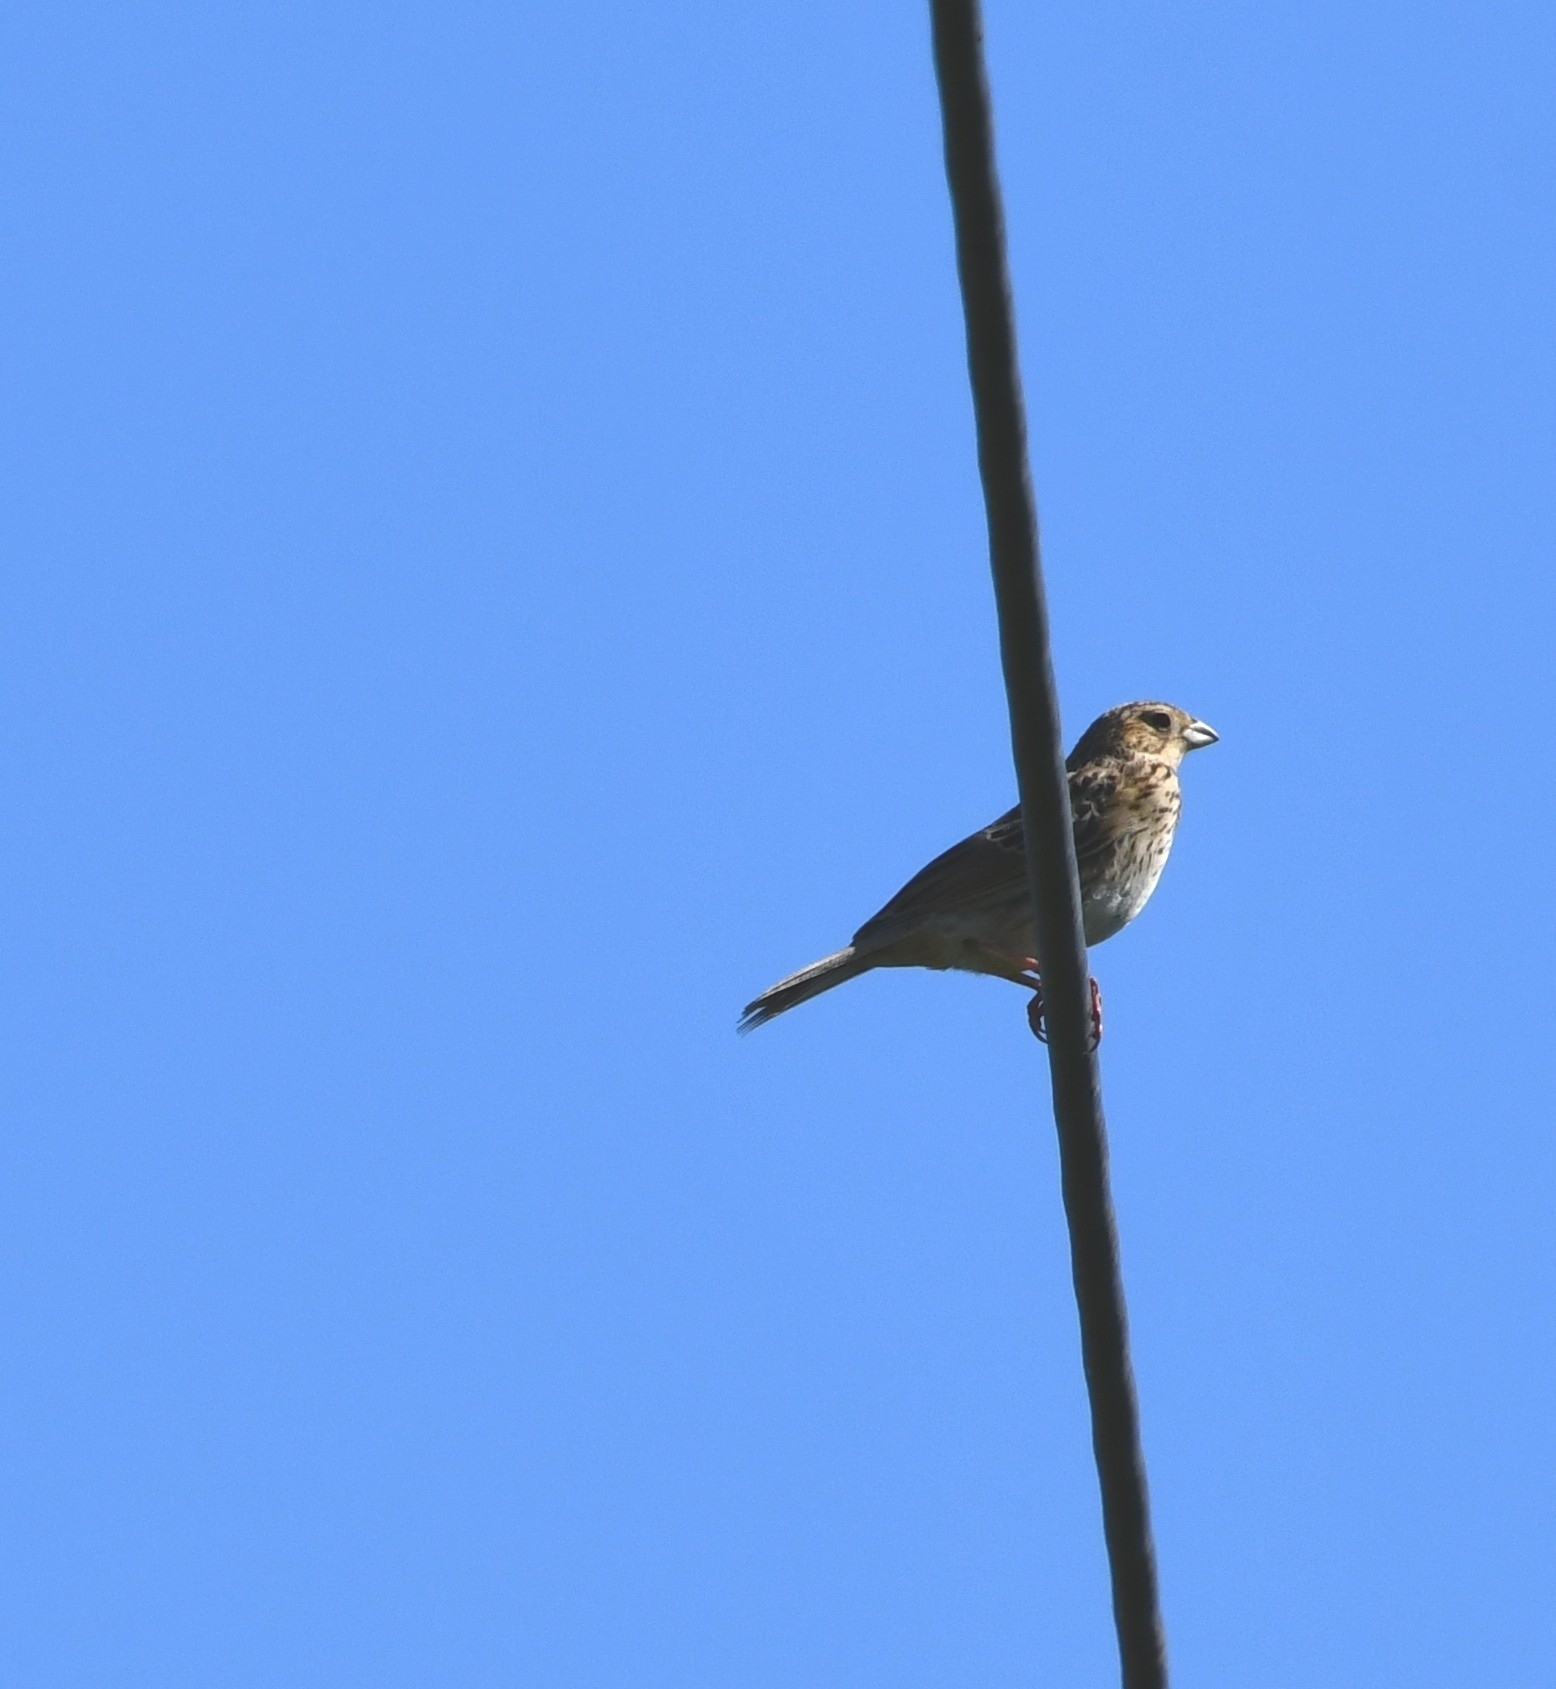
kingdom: Animalia
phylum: Chordata
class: Aves
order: Passeriformes
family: Emberizidae
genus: Emberiza
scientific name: Emberiza calandra
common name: Corn bunting
